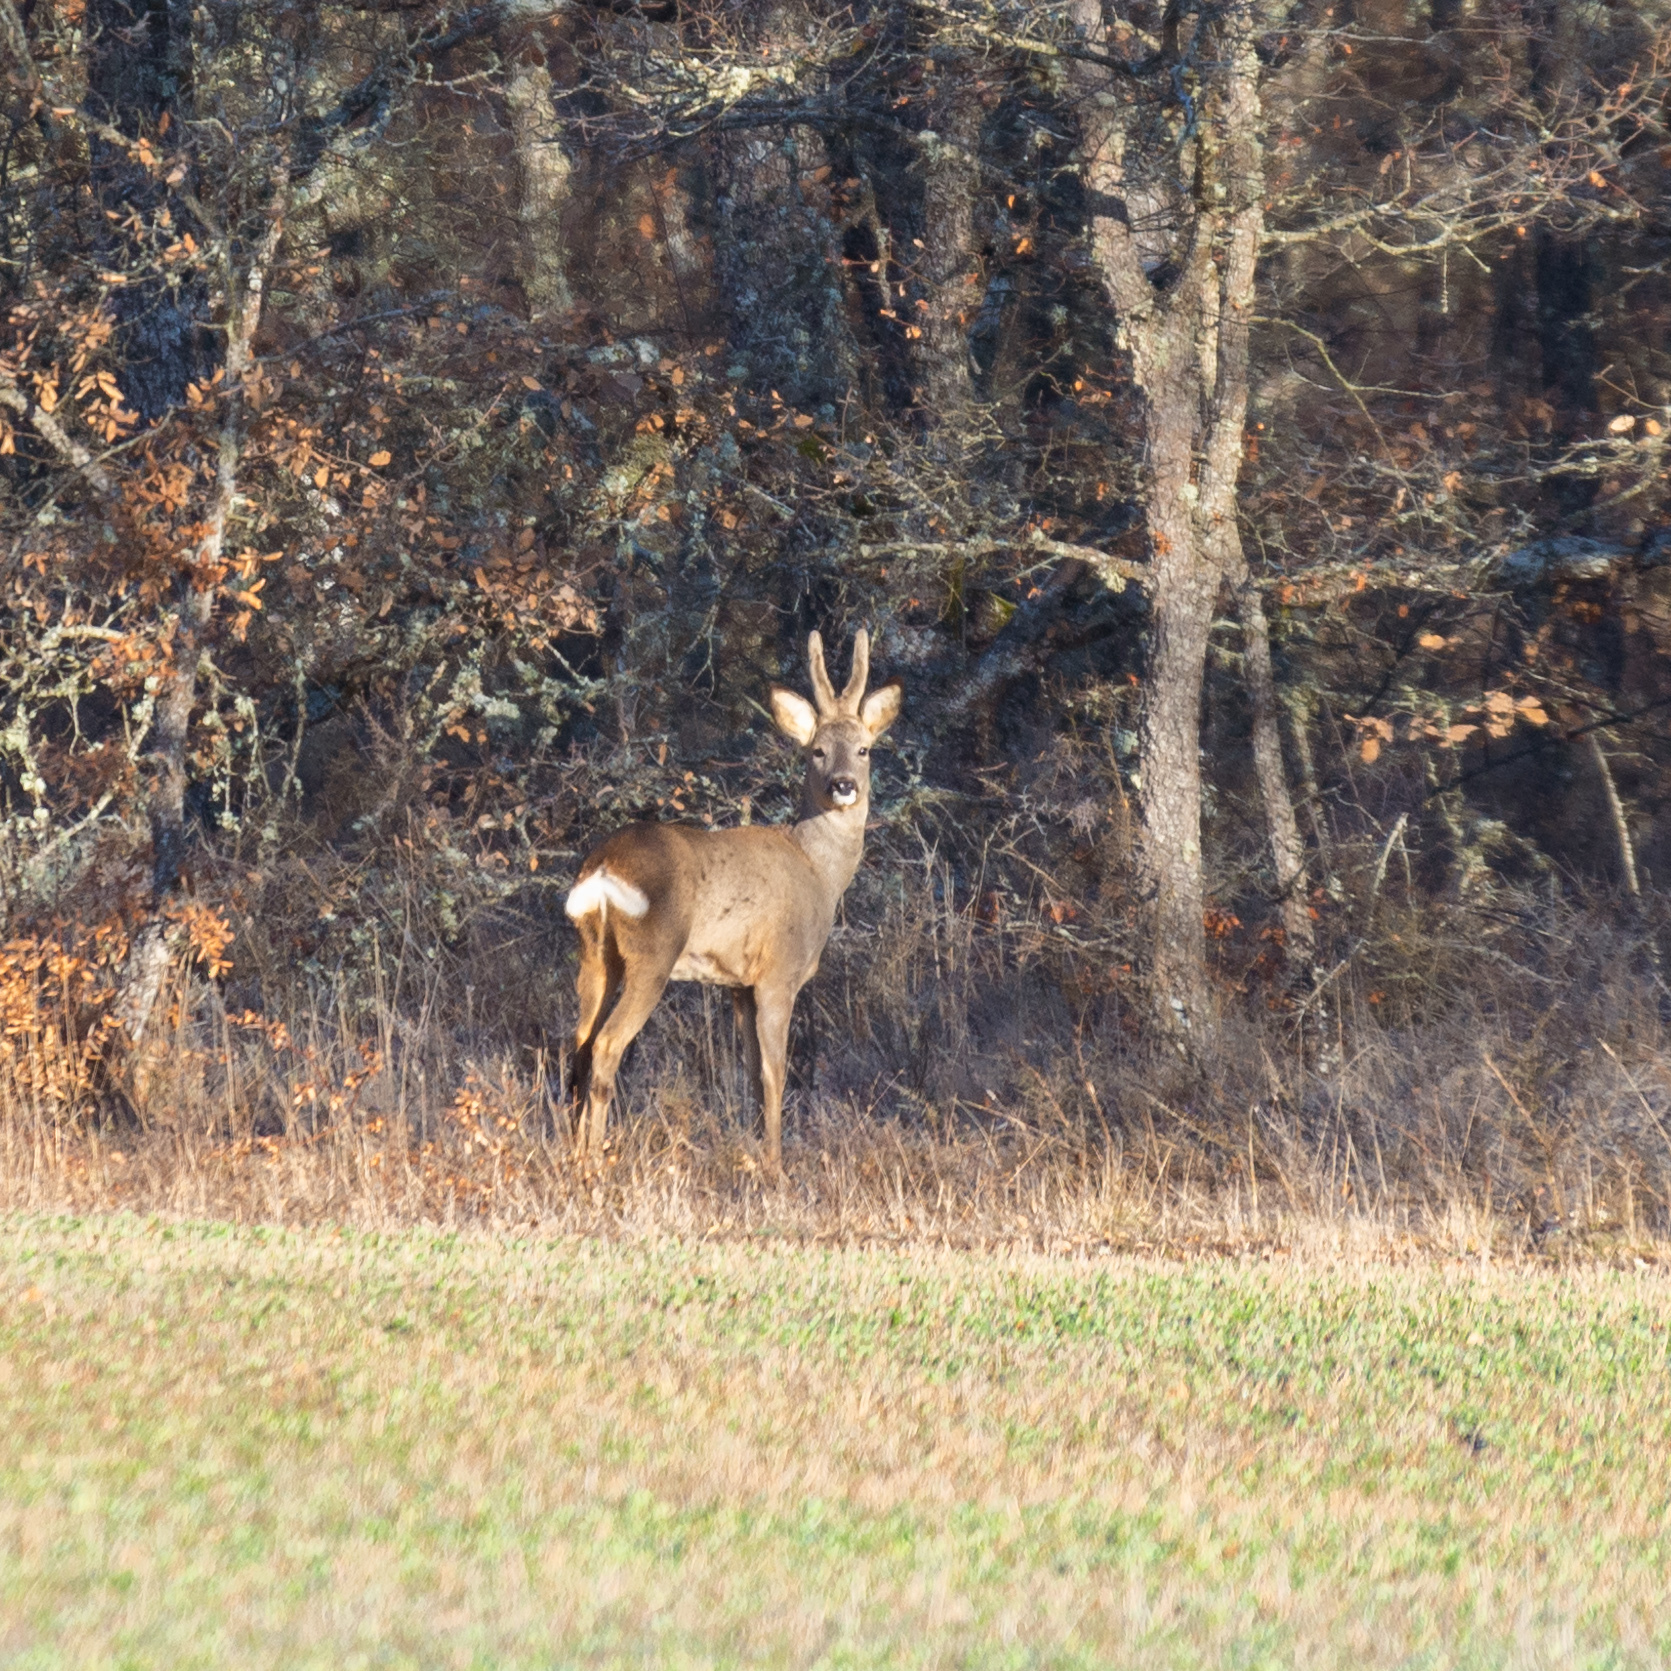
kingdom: Animalia
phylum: Chordata
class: Mammalia
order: Artiodactyla
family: Cervidae
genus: Capreolus
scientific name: Capreolus capreolus
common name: Western roe deer
